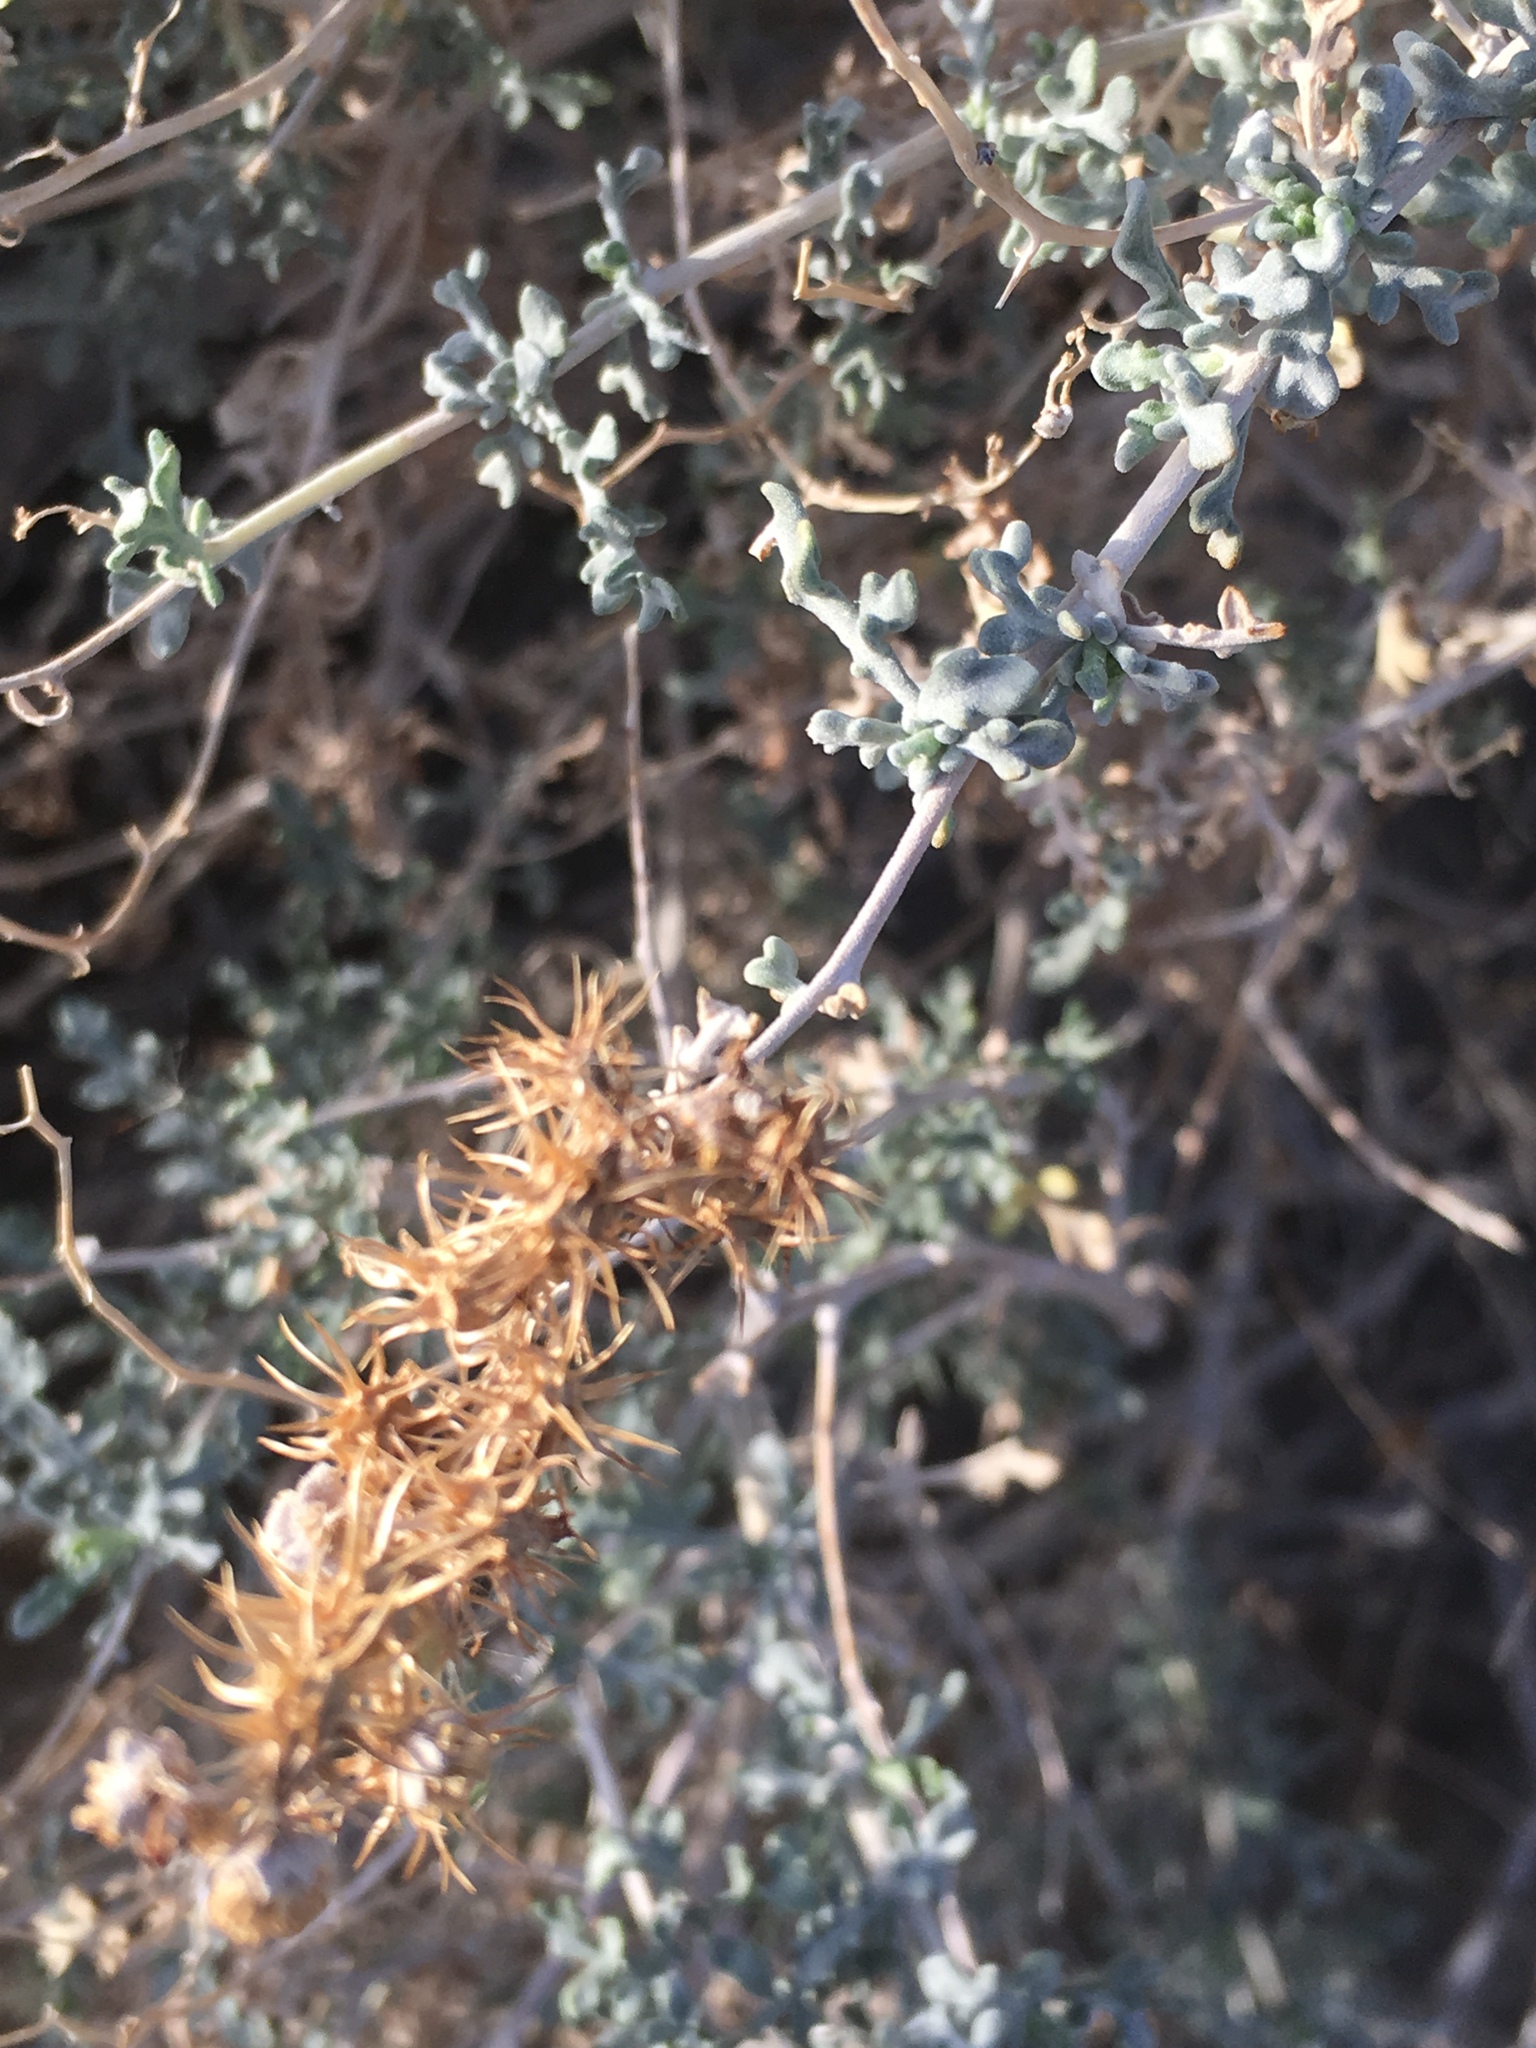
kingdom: Plantae
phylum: Tracheophyta
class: Magnoliopsida
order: Asterales
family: Asteraceae
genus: Ambrosia
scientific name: Ambrosia dumosa
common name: Bur-sage
